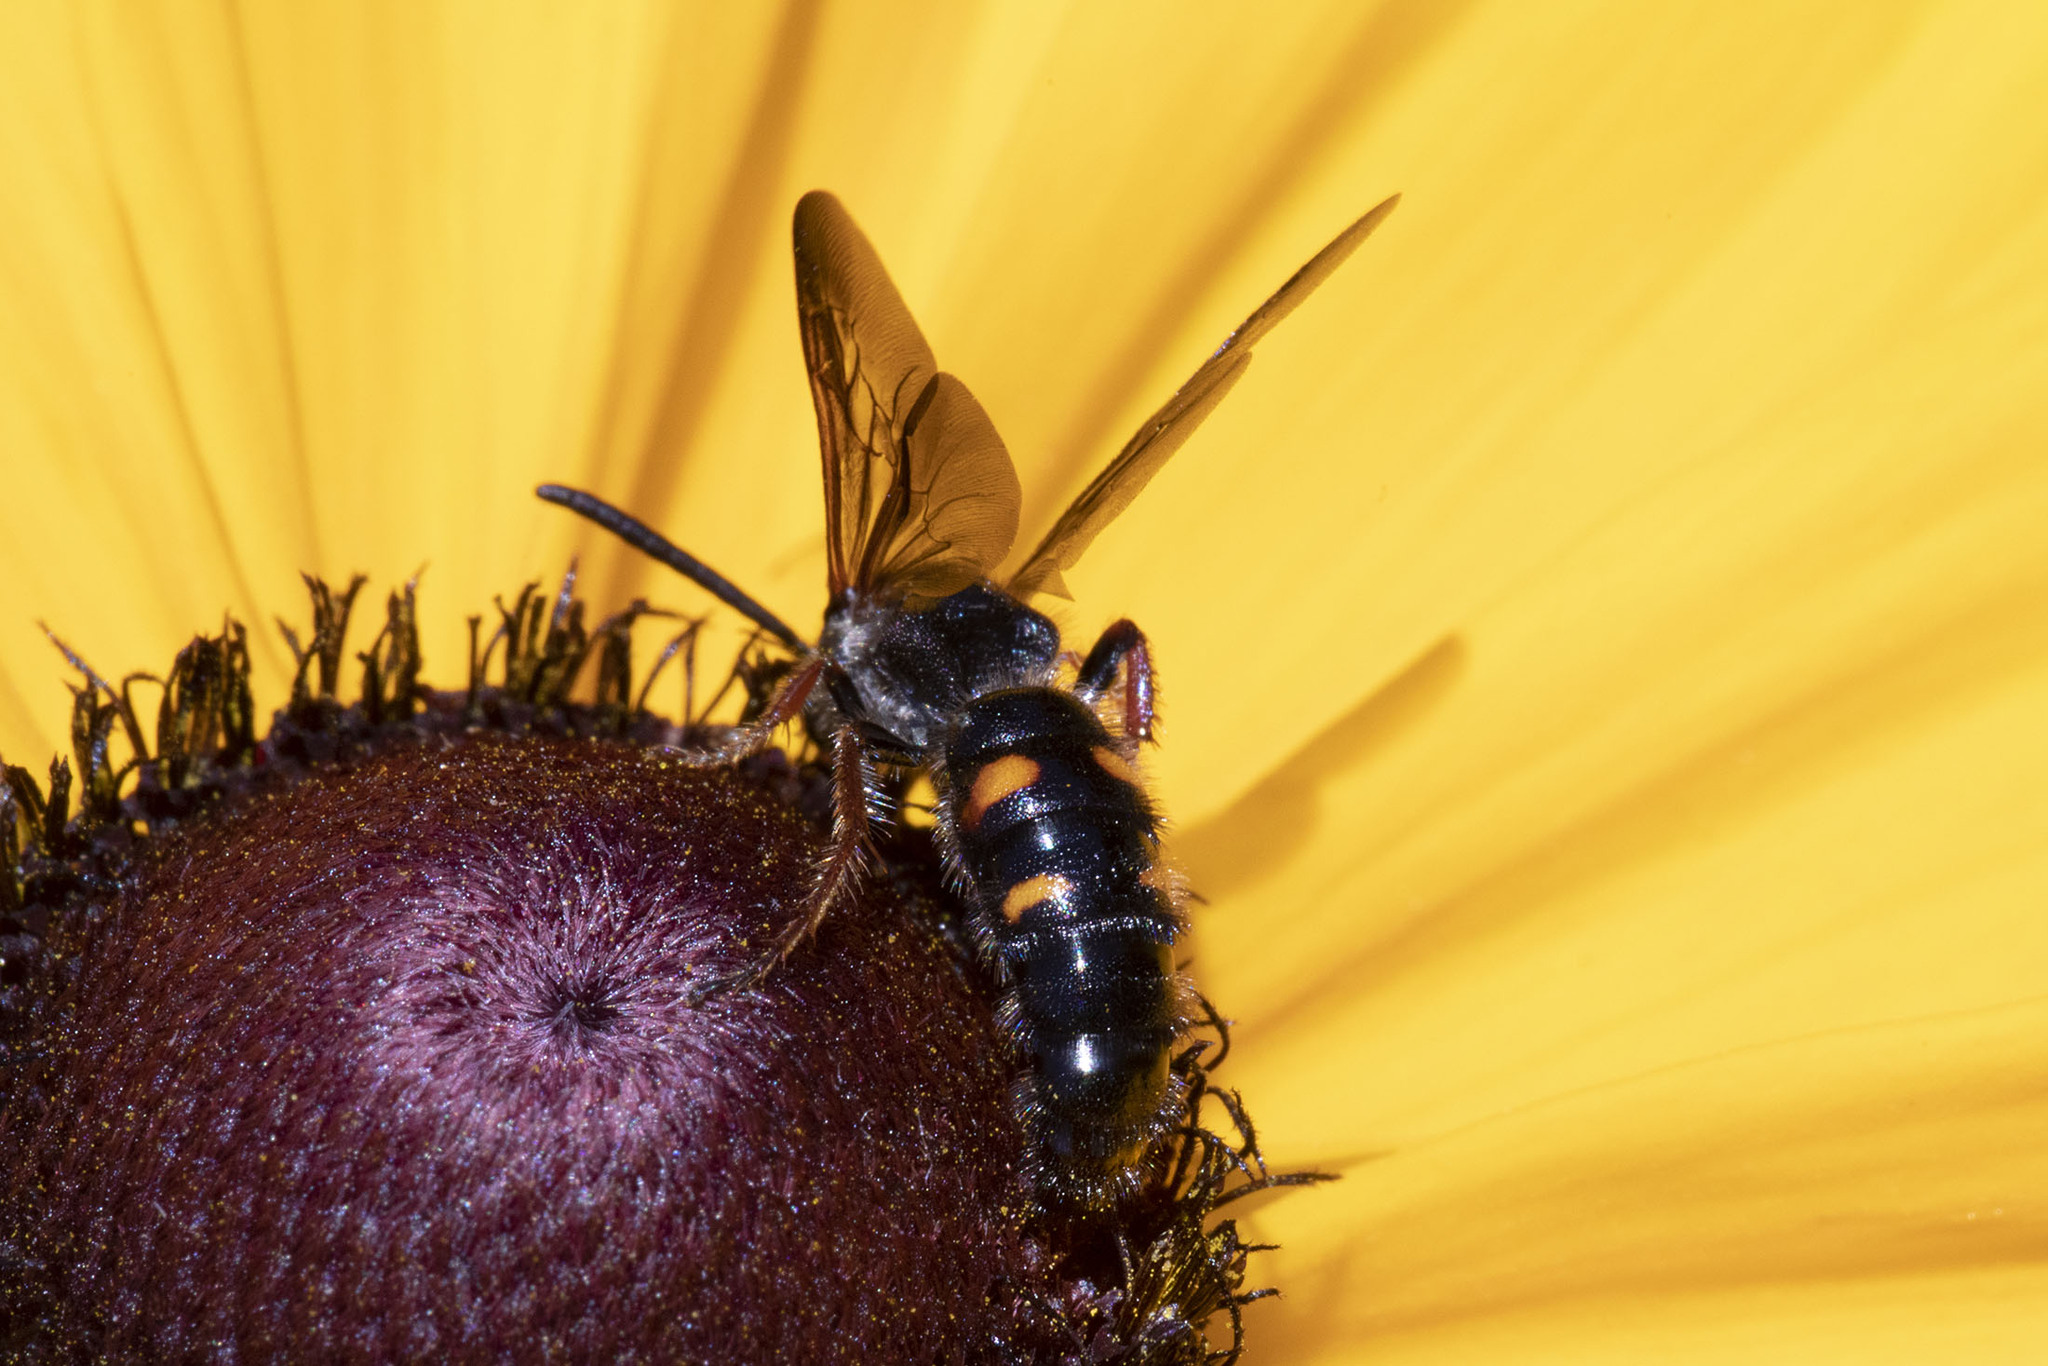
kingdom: Animalia
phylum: Arthropoda
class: Insecta
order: Hymenoptera
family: Scoliidae
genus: Scolia
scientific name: Scolia nobilitata
